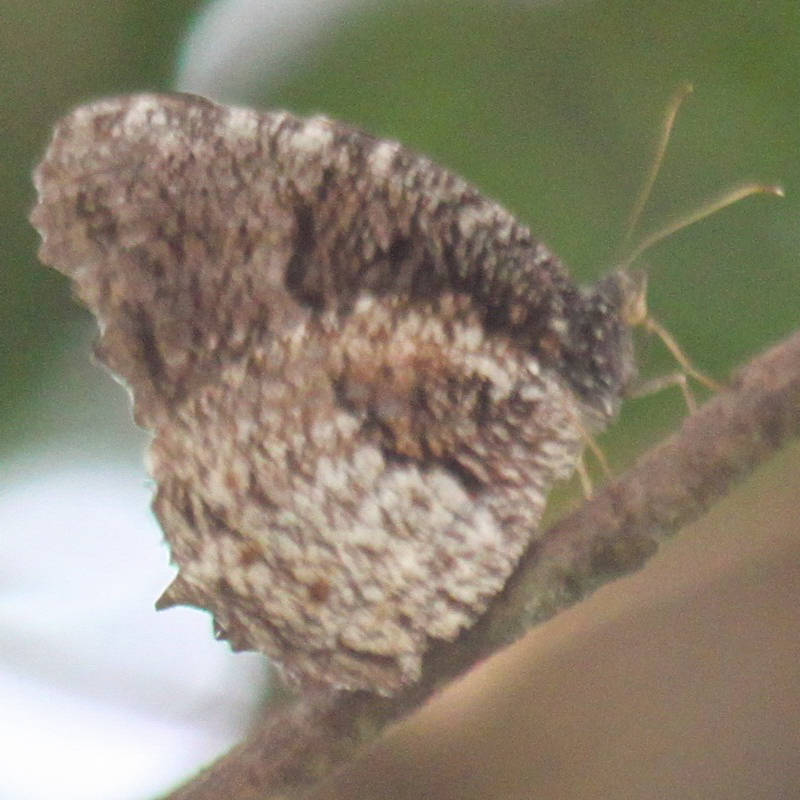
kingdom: Animalia
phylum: Arthropoda
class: Insecta
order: Lepidoptera
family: Nymphalidae
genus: Elymnias
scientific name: Elymnias nesaea
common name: Tiger palmfly
